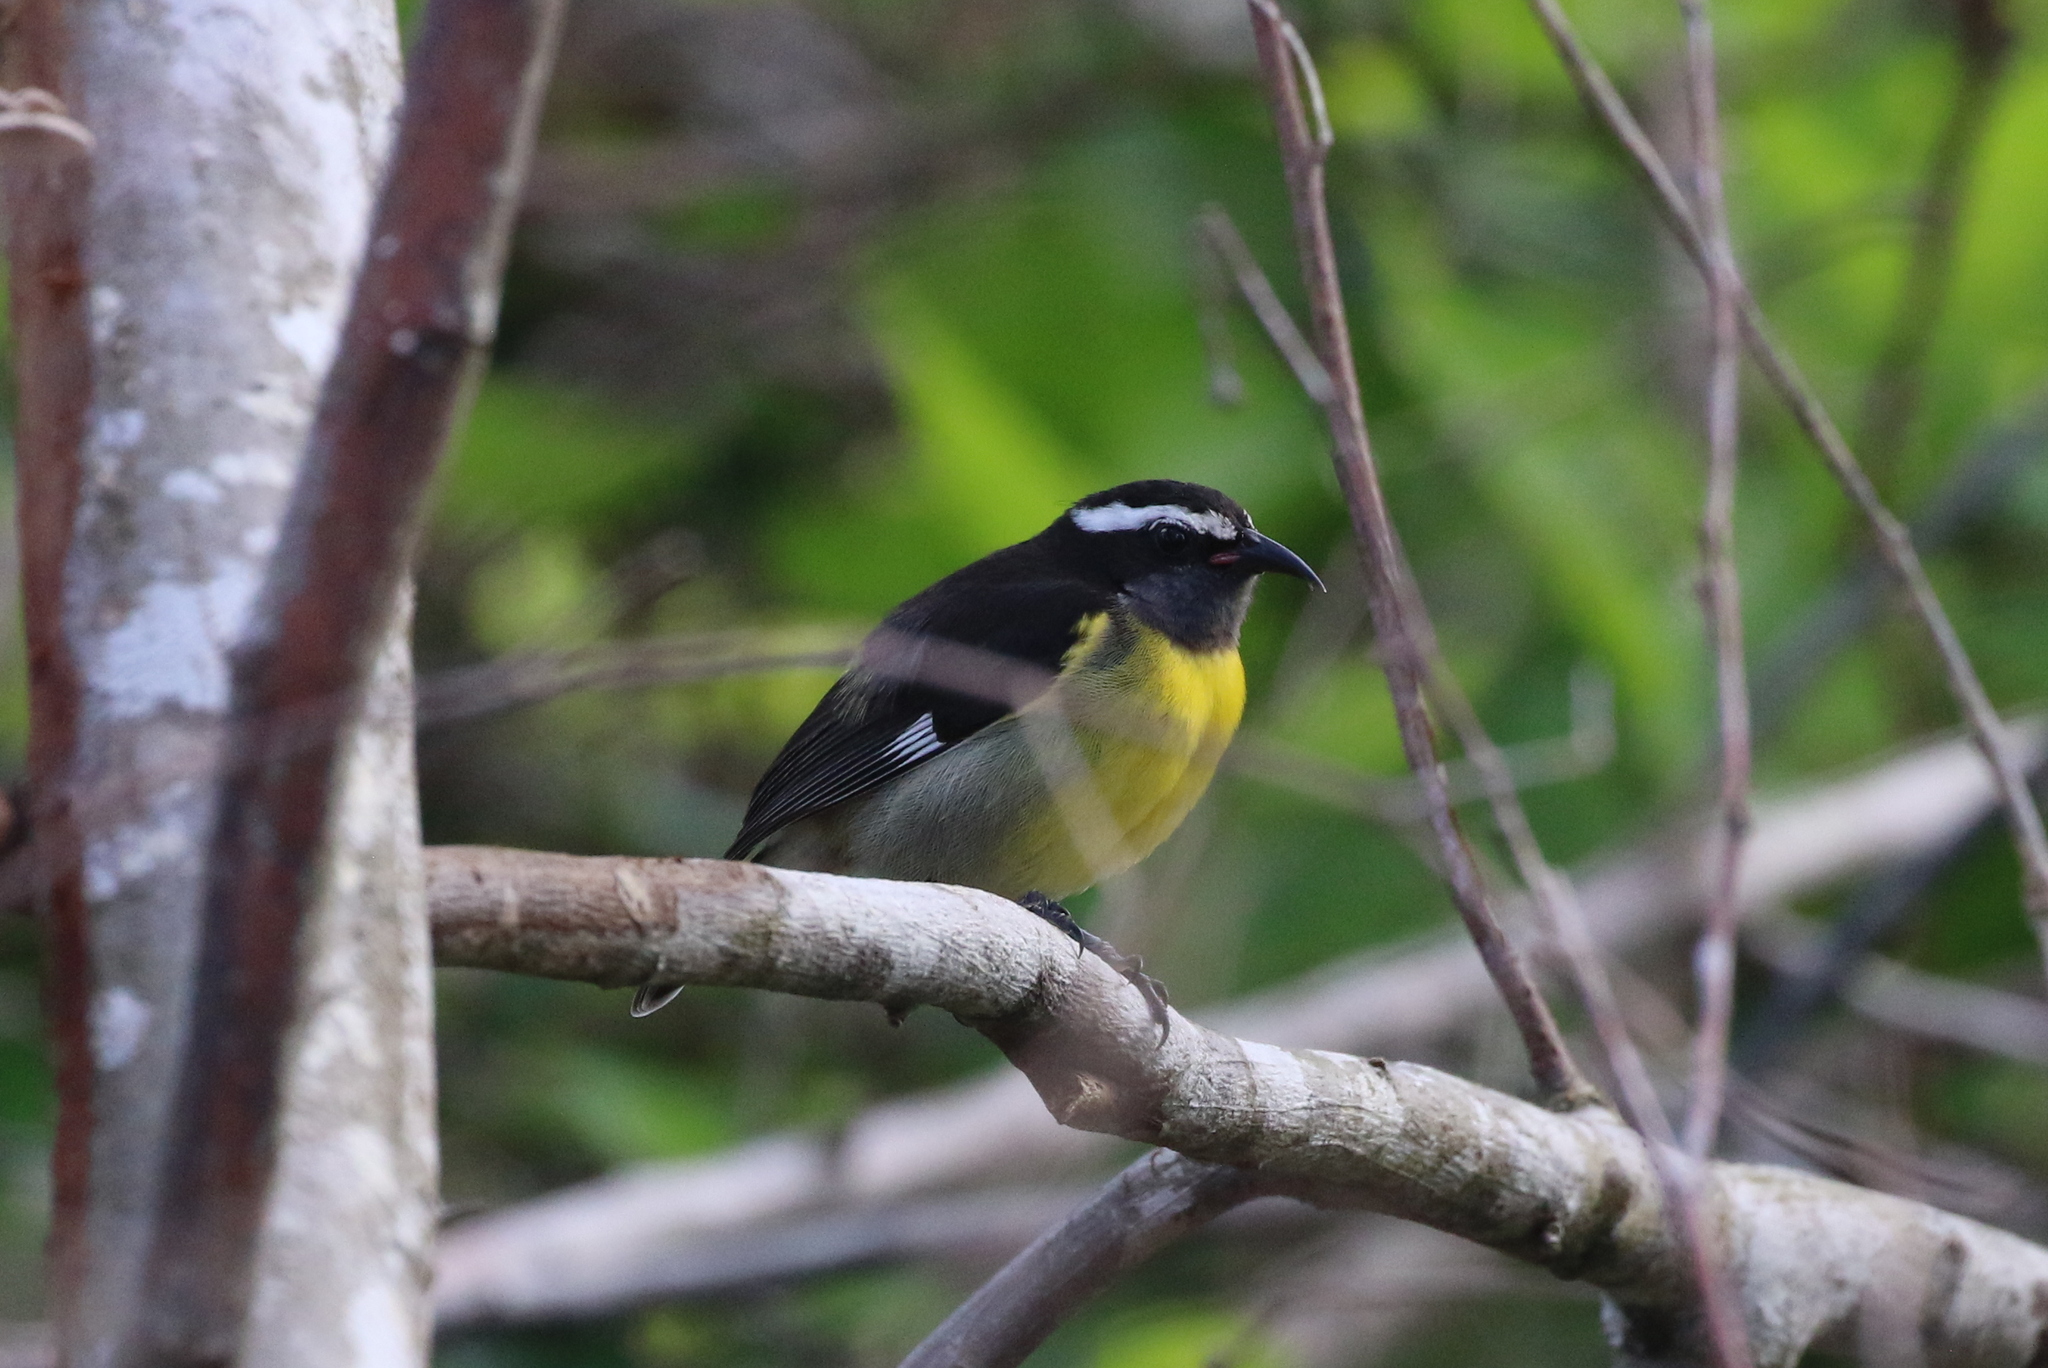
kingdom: Animalia
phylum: Chordata
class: Aves
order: Passeriformes
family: Thraupidae
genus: Coereba
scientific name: Coereba flaveola
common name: Bananaquit
